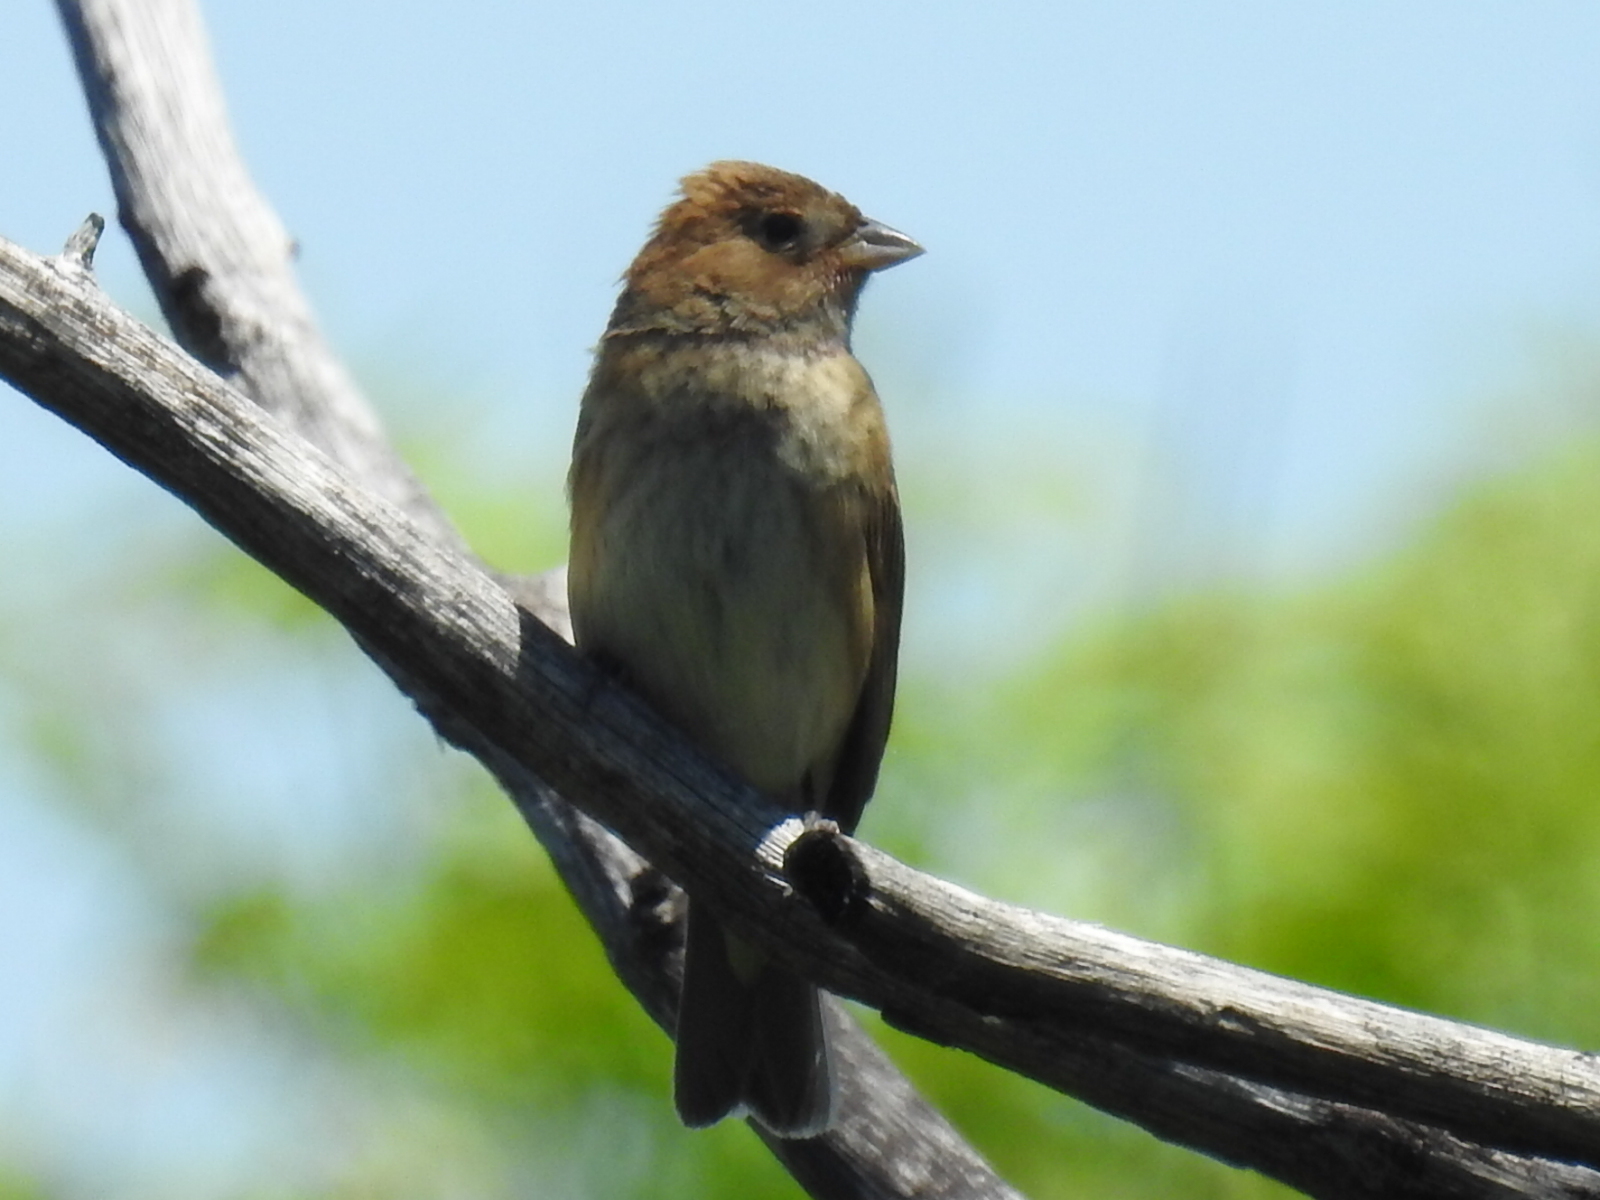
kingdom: Animalia
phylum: Chordata
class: Aves
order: Passeriformes
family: Cardinalidae
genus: Passerina
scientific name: Passerina cyanea
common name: Indigo bunting
